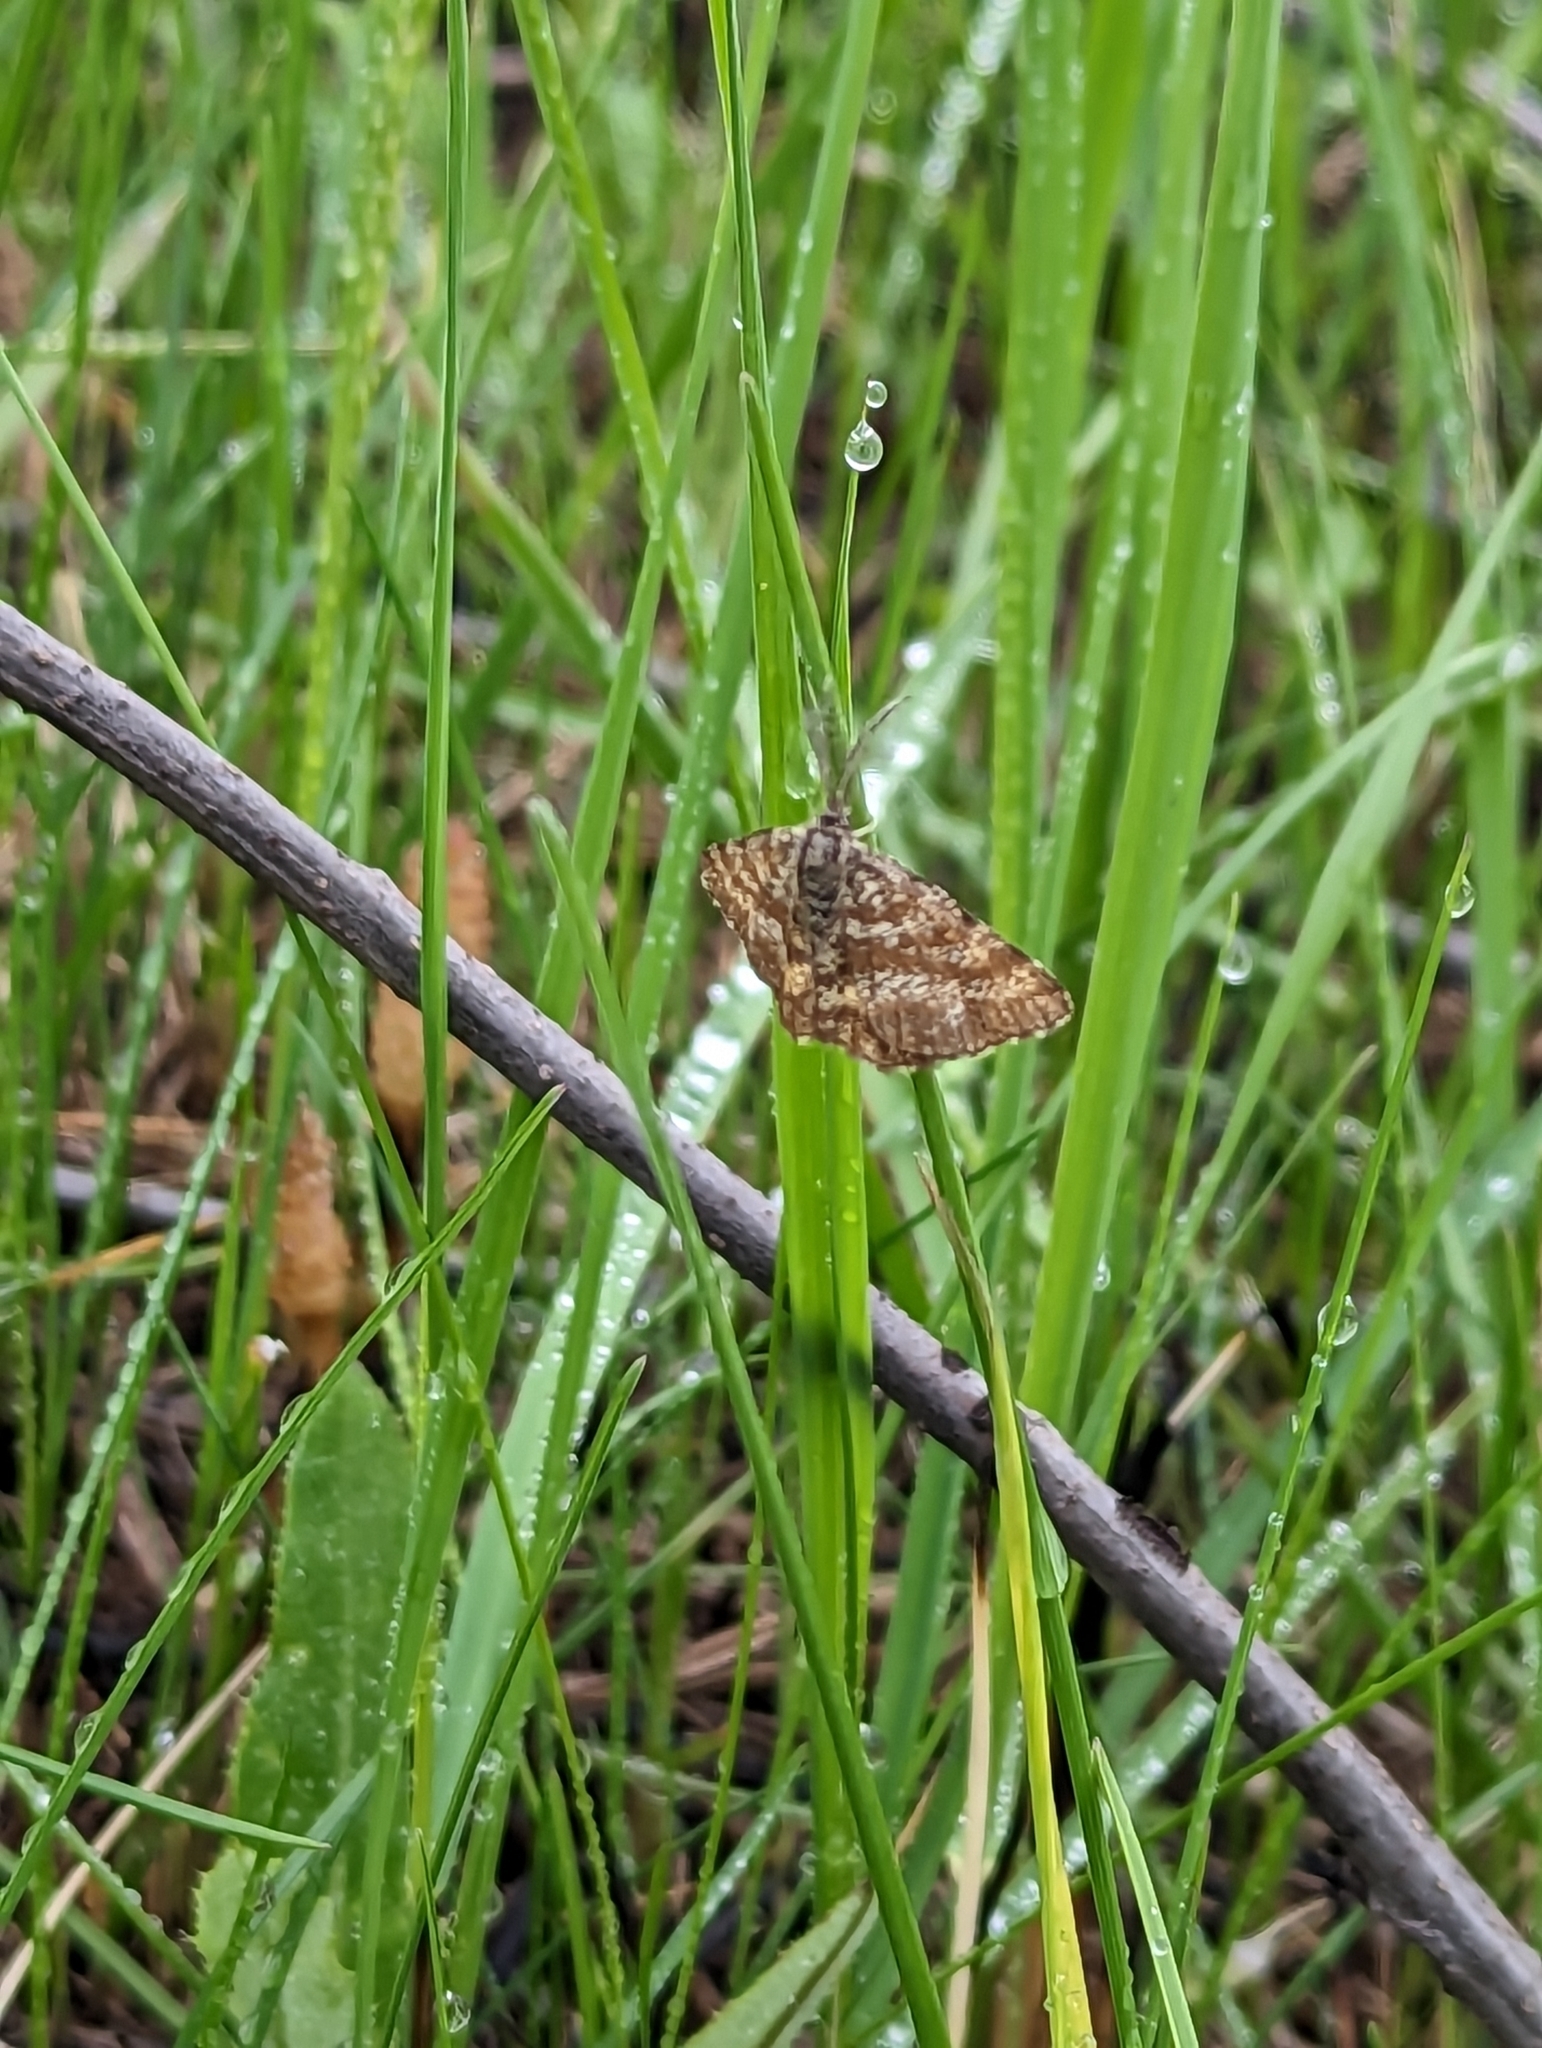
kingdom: Animalia
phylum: Arthropoda
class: Insecta
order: Lepidoptera
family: Geometridae
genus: Ematurga
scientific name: Ematurga atomaria
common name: Common heath
